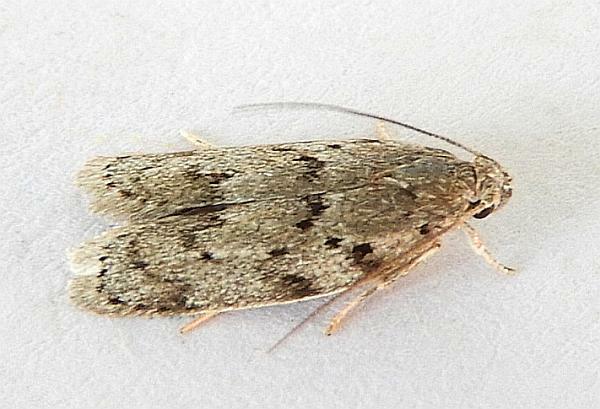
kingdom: Animalia
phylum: Arthropoda
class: Insecta
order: Lepidoptera
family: Depressariidae
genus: Antaeotricha
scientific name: Antaeotricha humilis
